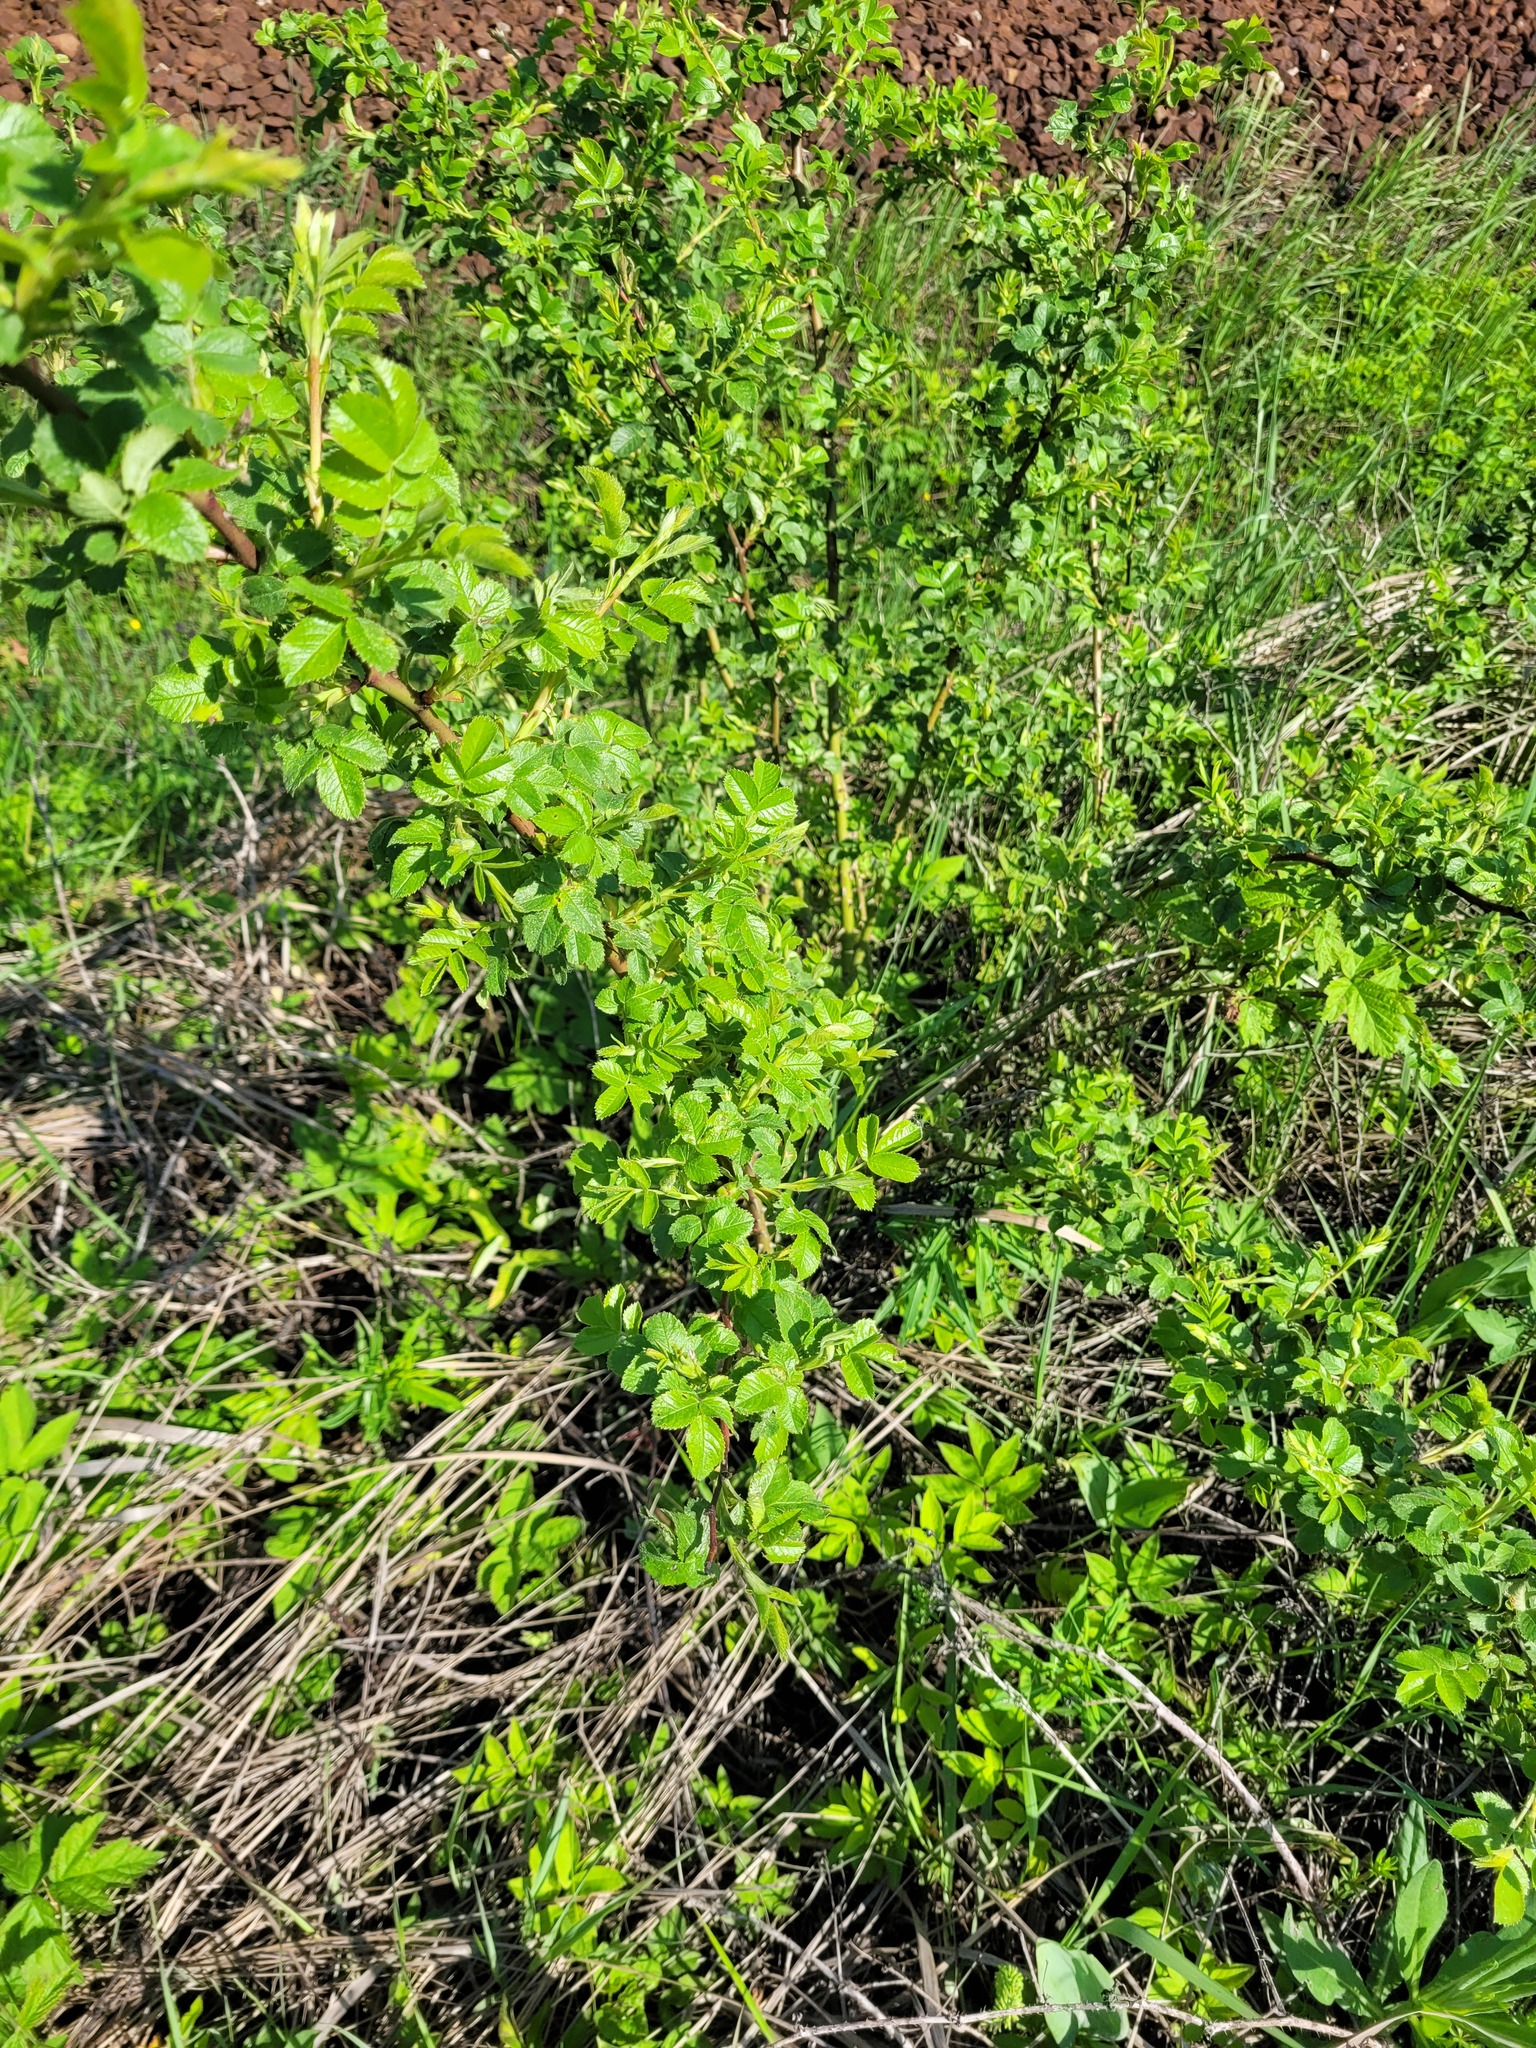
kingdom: Plantae
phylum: Tracheophyta
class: Magnoliopsida
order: Rosales
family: Rosaceae
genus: Rosa
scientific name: Rosa rugosa
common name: Japanese rose
